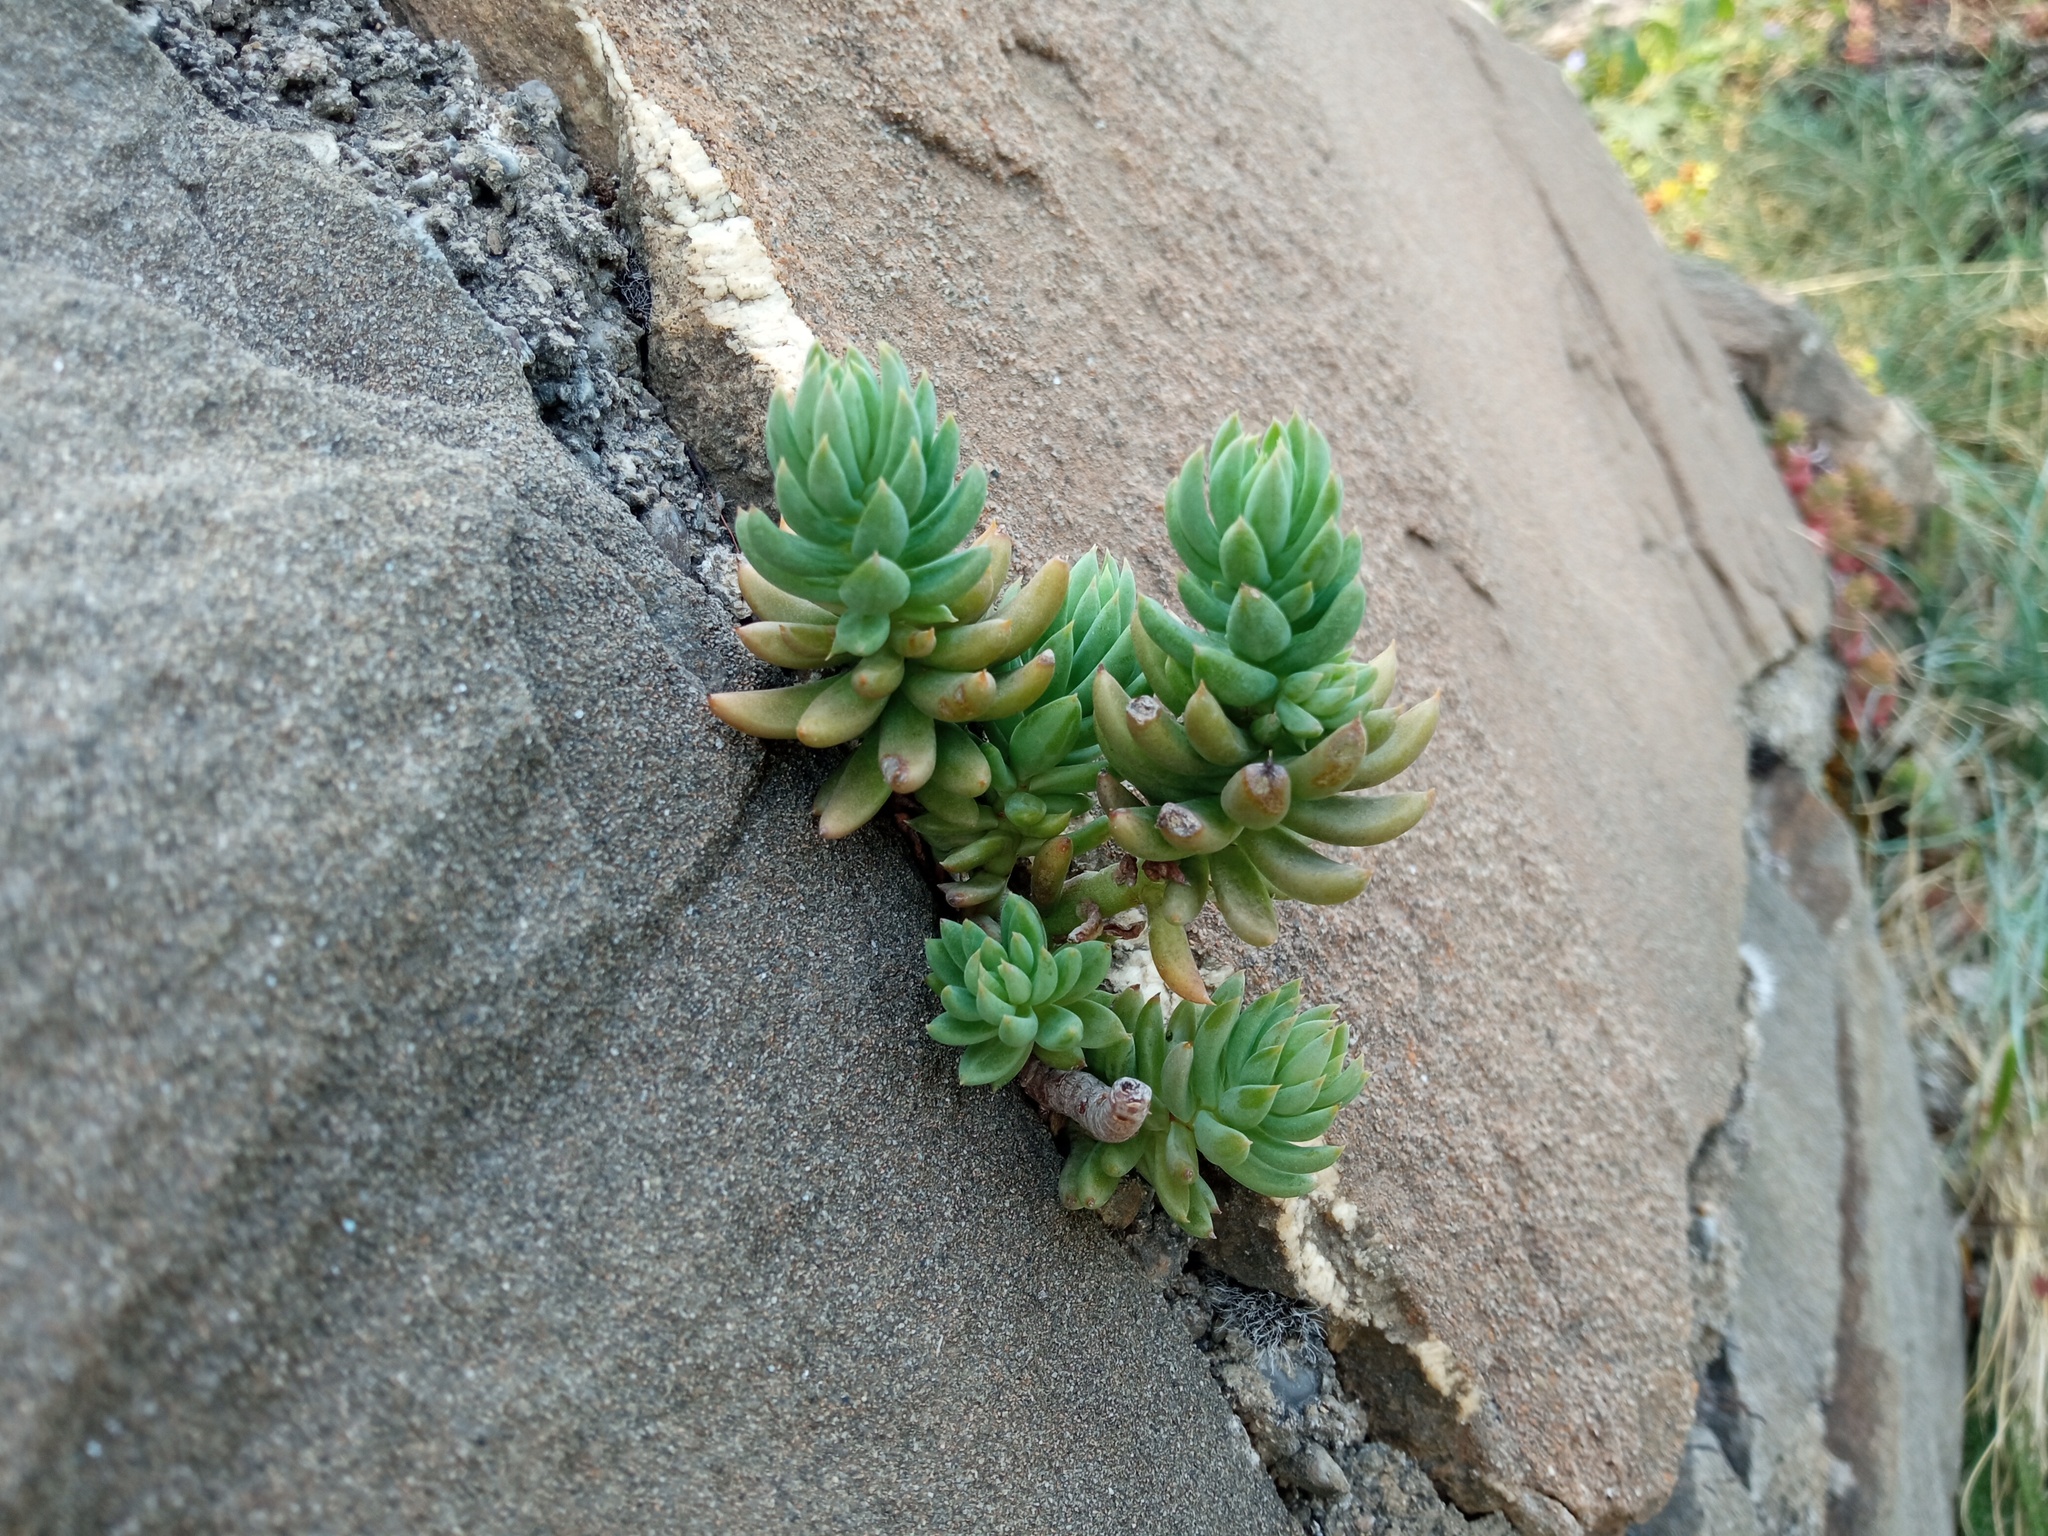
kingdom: Plantae
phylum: Tracheophyta
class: Magnoliopsida
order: Saxifragales
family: Crassulaceae
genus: Petrosedum
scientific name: Petrosedum sediforme
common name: Pale stonecrop
